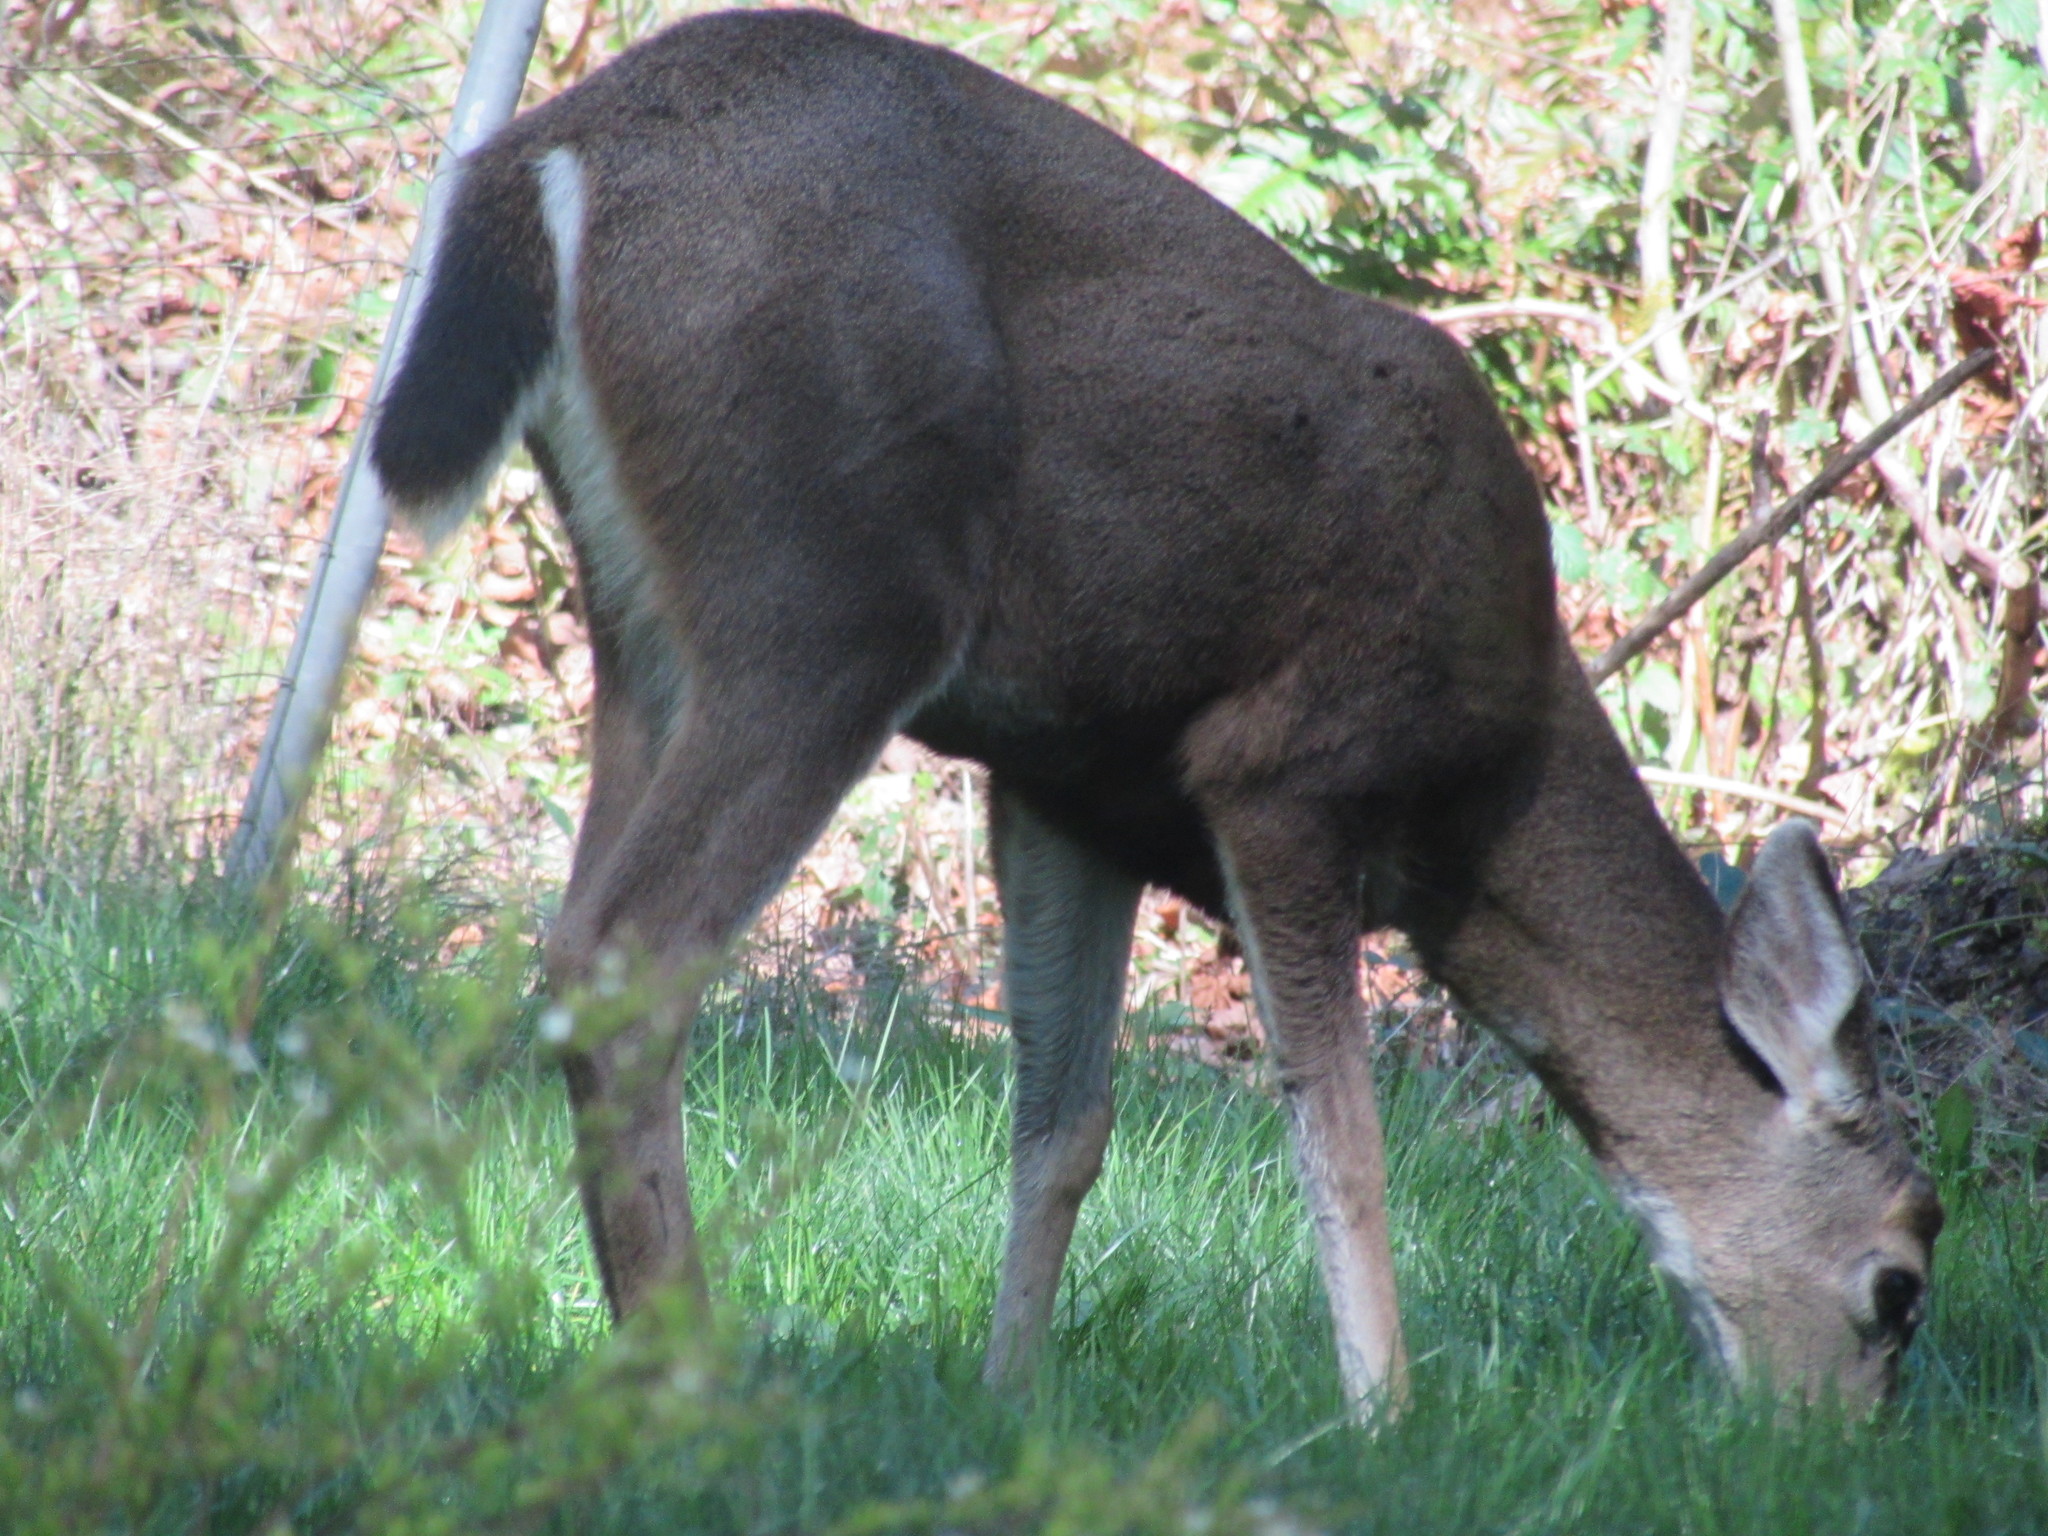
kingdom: Animalia
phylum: Chordata
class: Mammalia
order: Artiodactyla
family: Cervidae
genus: Odocoileus
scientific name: Odocoileus hemionus
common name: Mule deer
